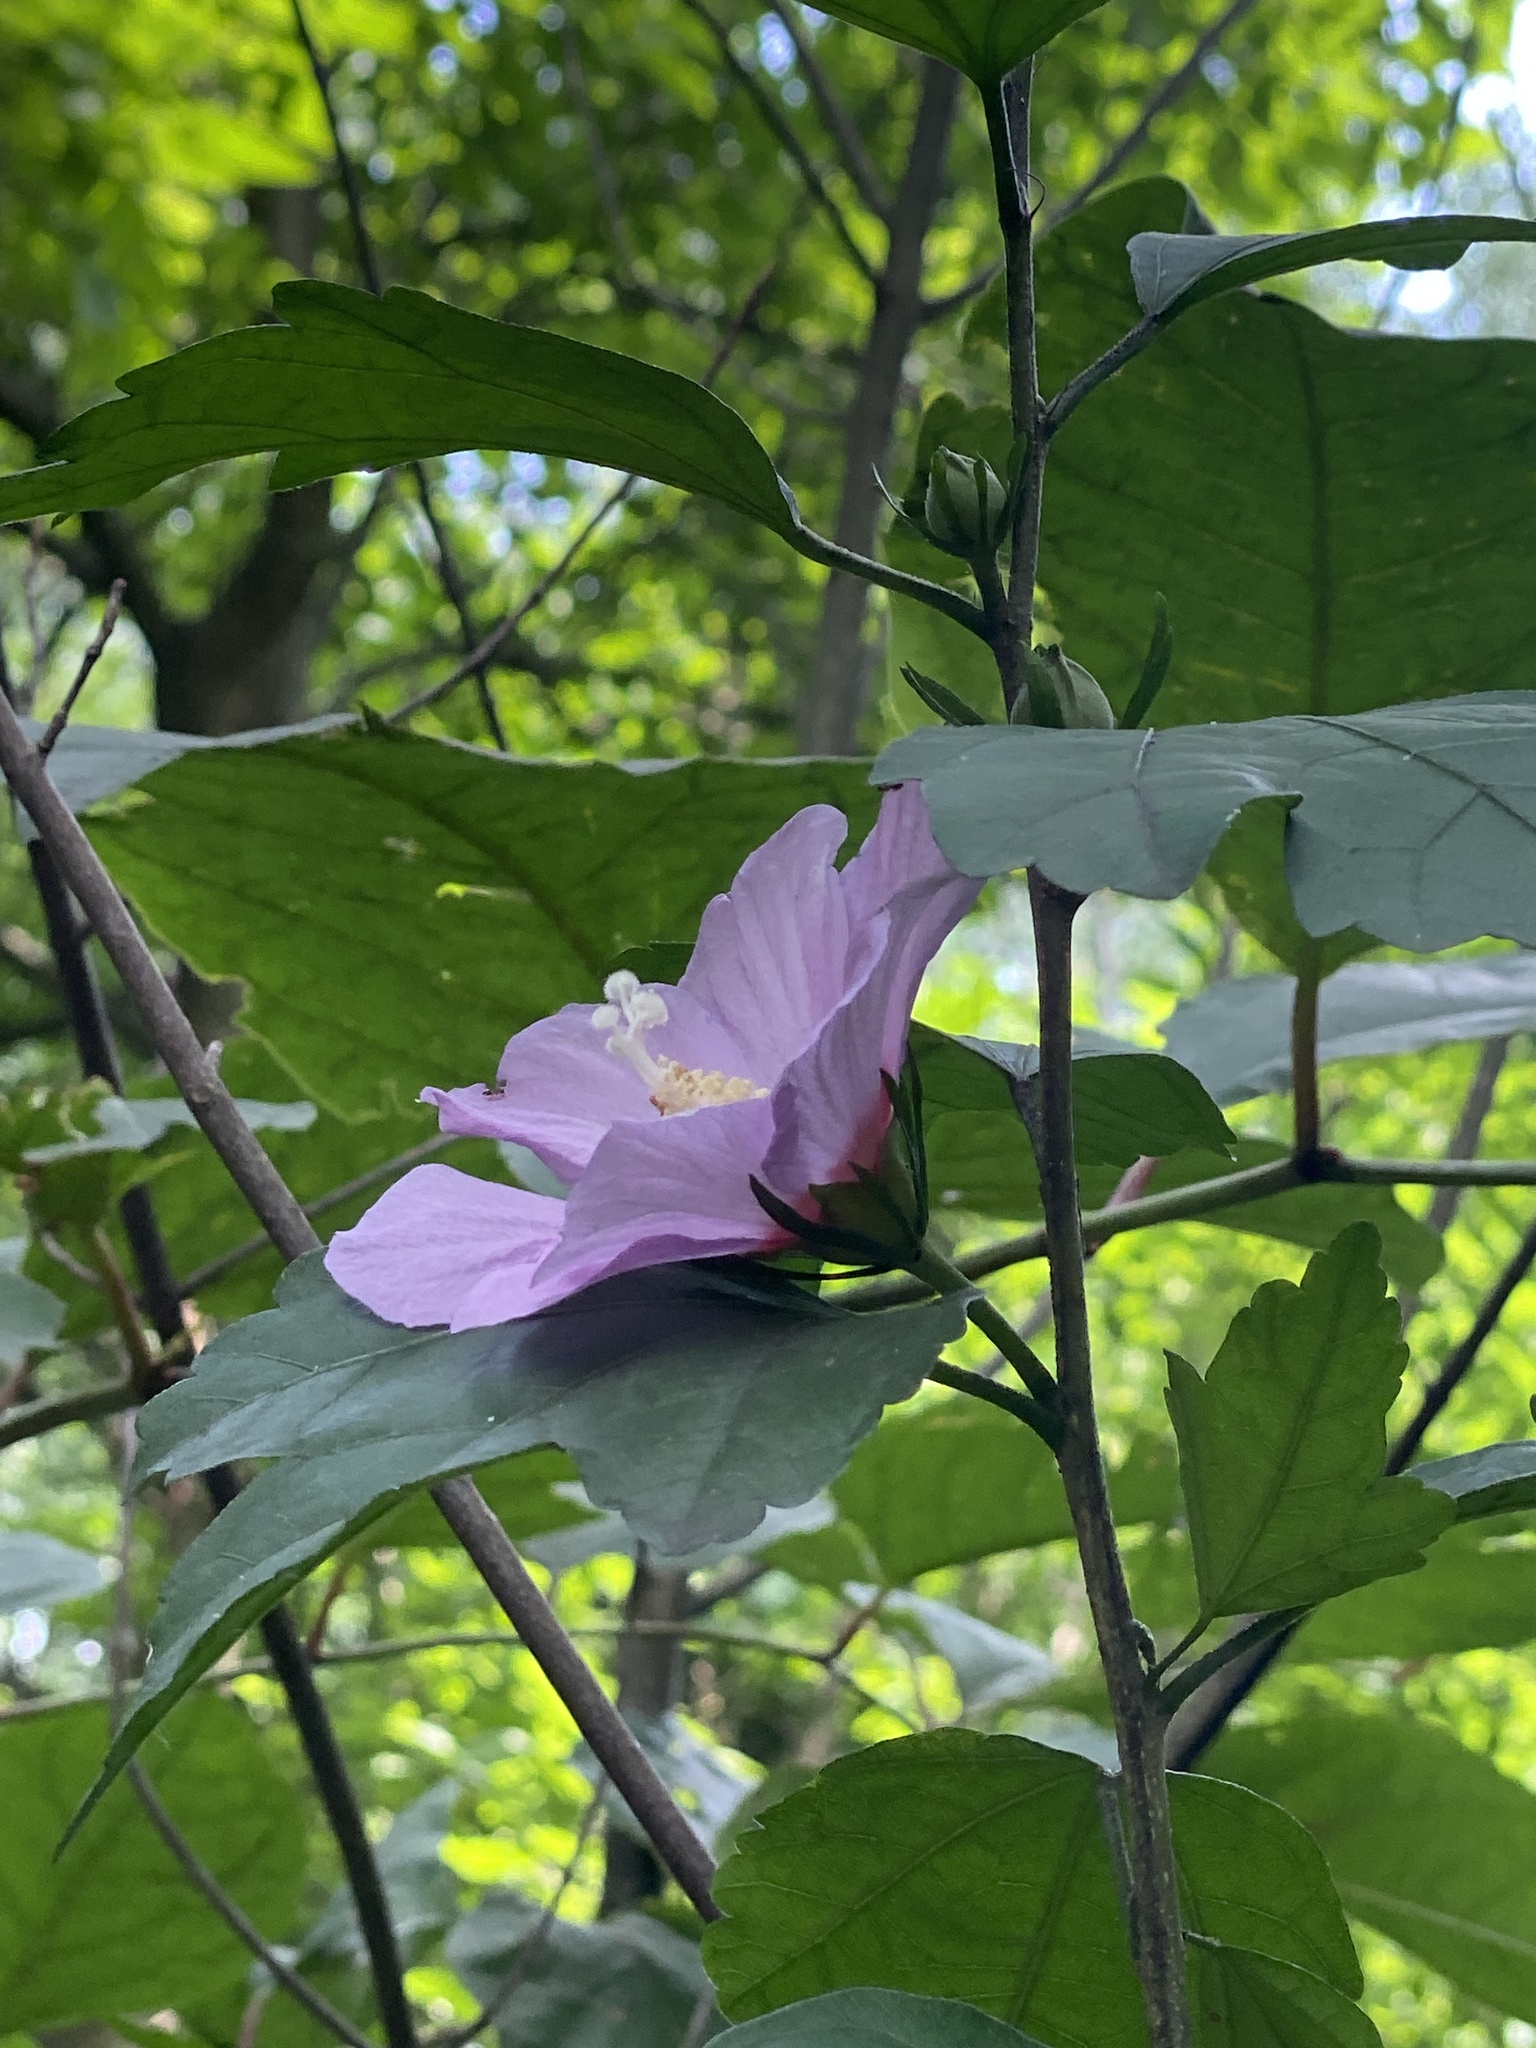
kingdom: Plantae
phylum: Tracheophyta
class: Magnoliopsida
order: Malvales
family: Malvaceae
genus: Hibiscus
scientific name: Hibiscus syriacus
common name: Syrian ketmia
